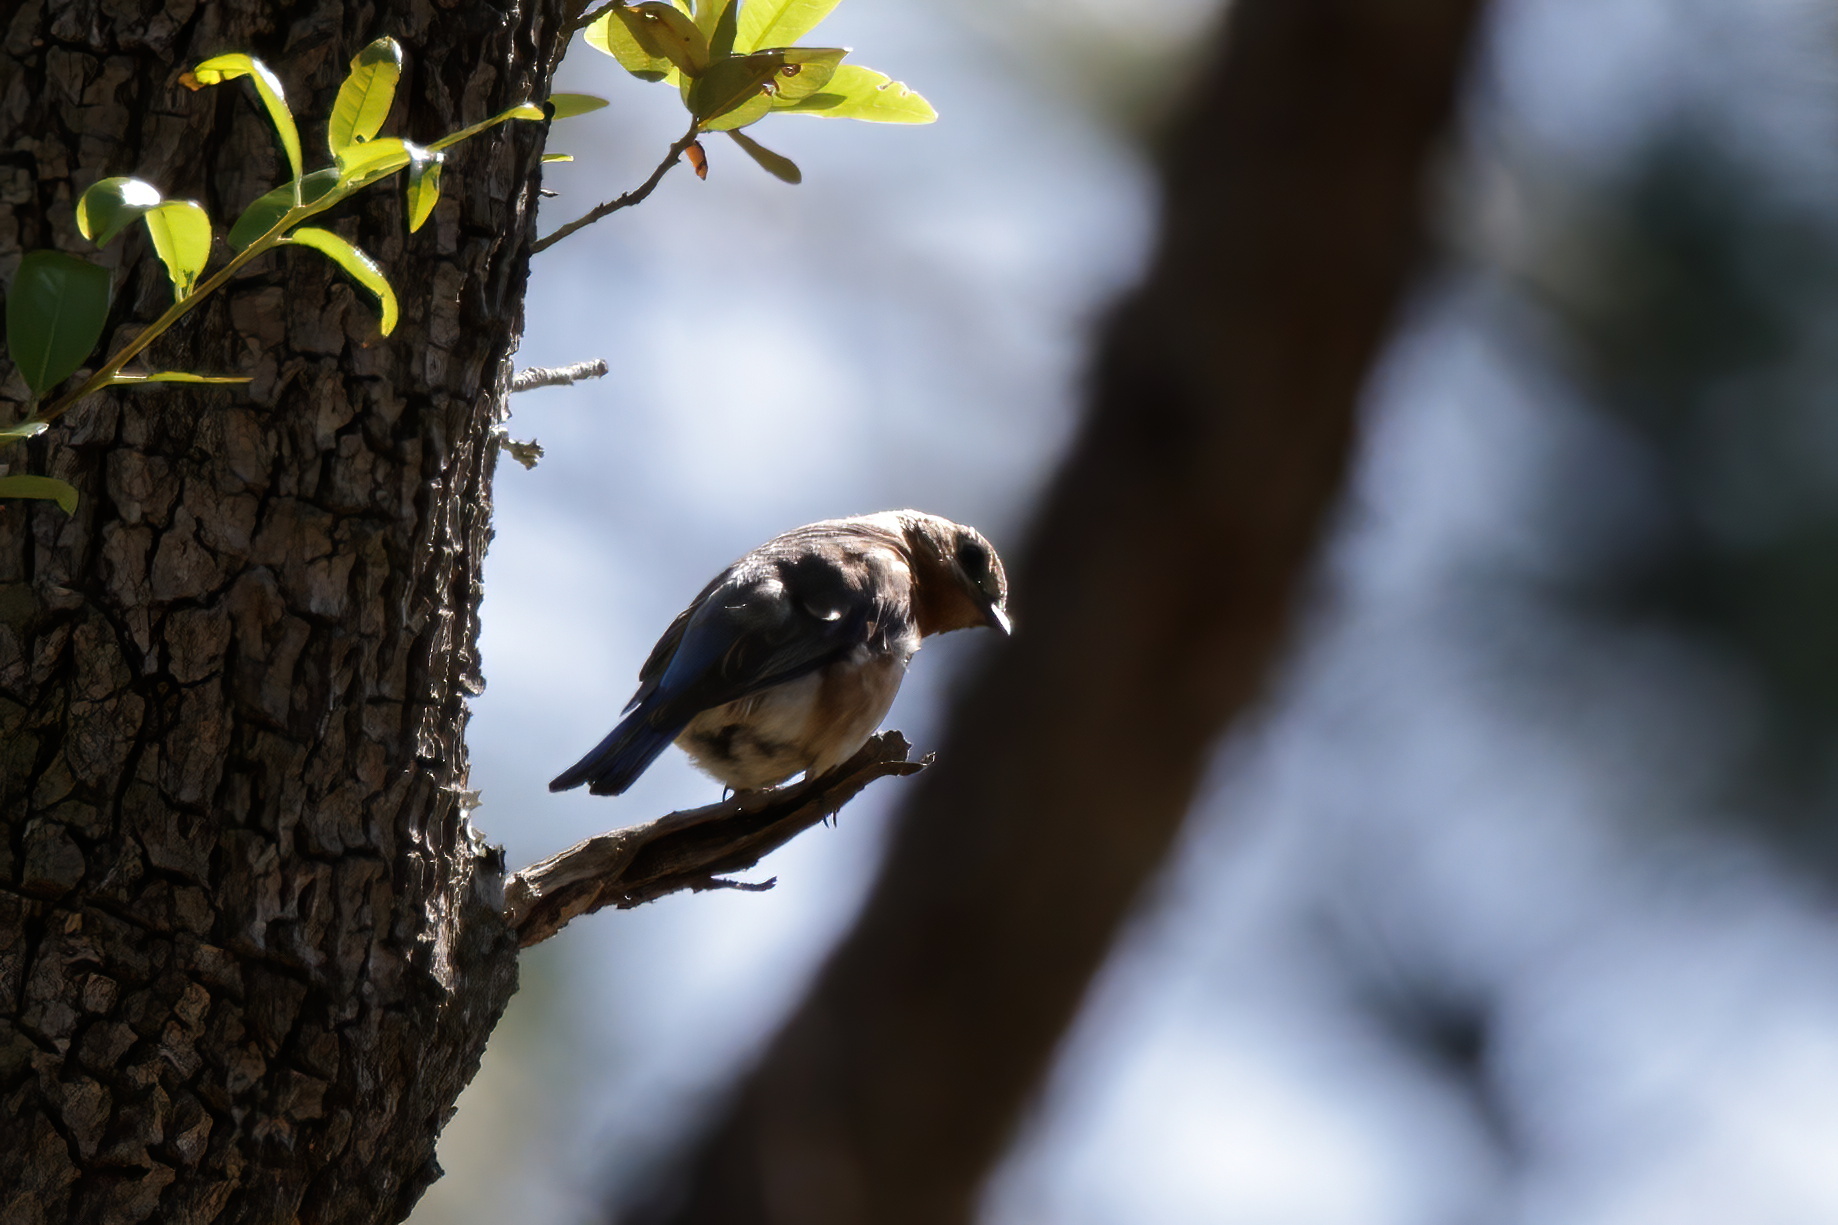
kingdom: Animalia
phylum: Chordata
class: Aves
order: Passeriformes
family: Turdidae
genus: Sialia
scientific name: Sialia sialis
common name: Eastern bluebird
